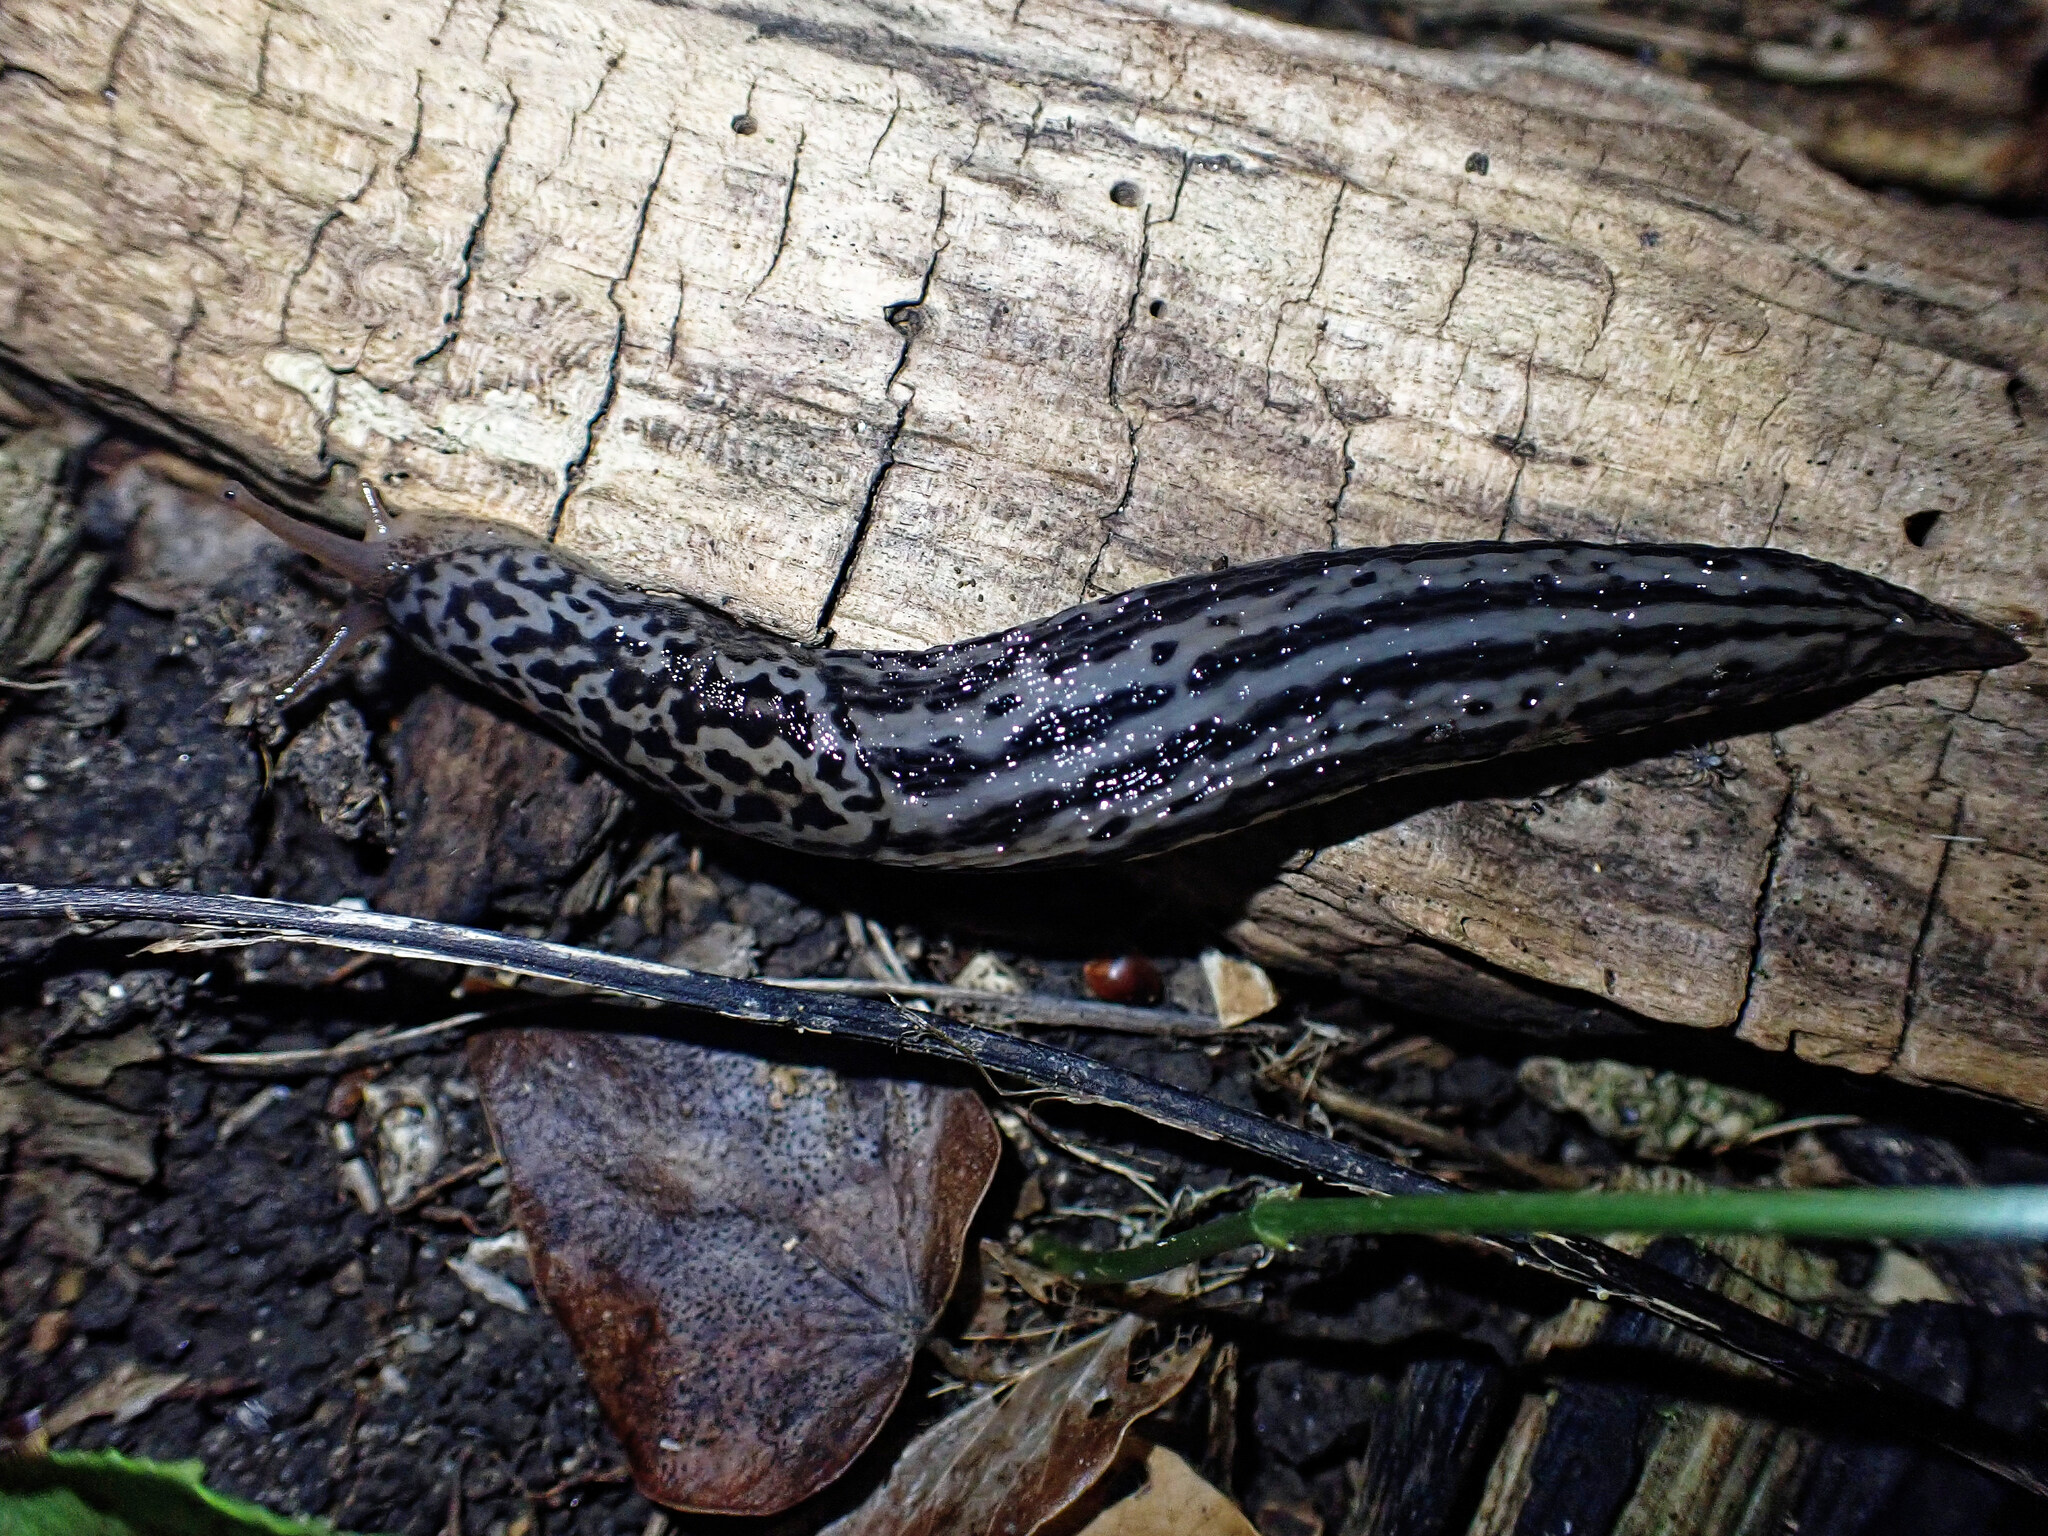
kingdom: Animalia
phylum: Mollusca
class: Gastropoda
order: Stylommatophora
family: Limacidae
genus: Limax
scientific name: Limax maximus
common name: Great grey slug
